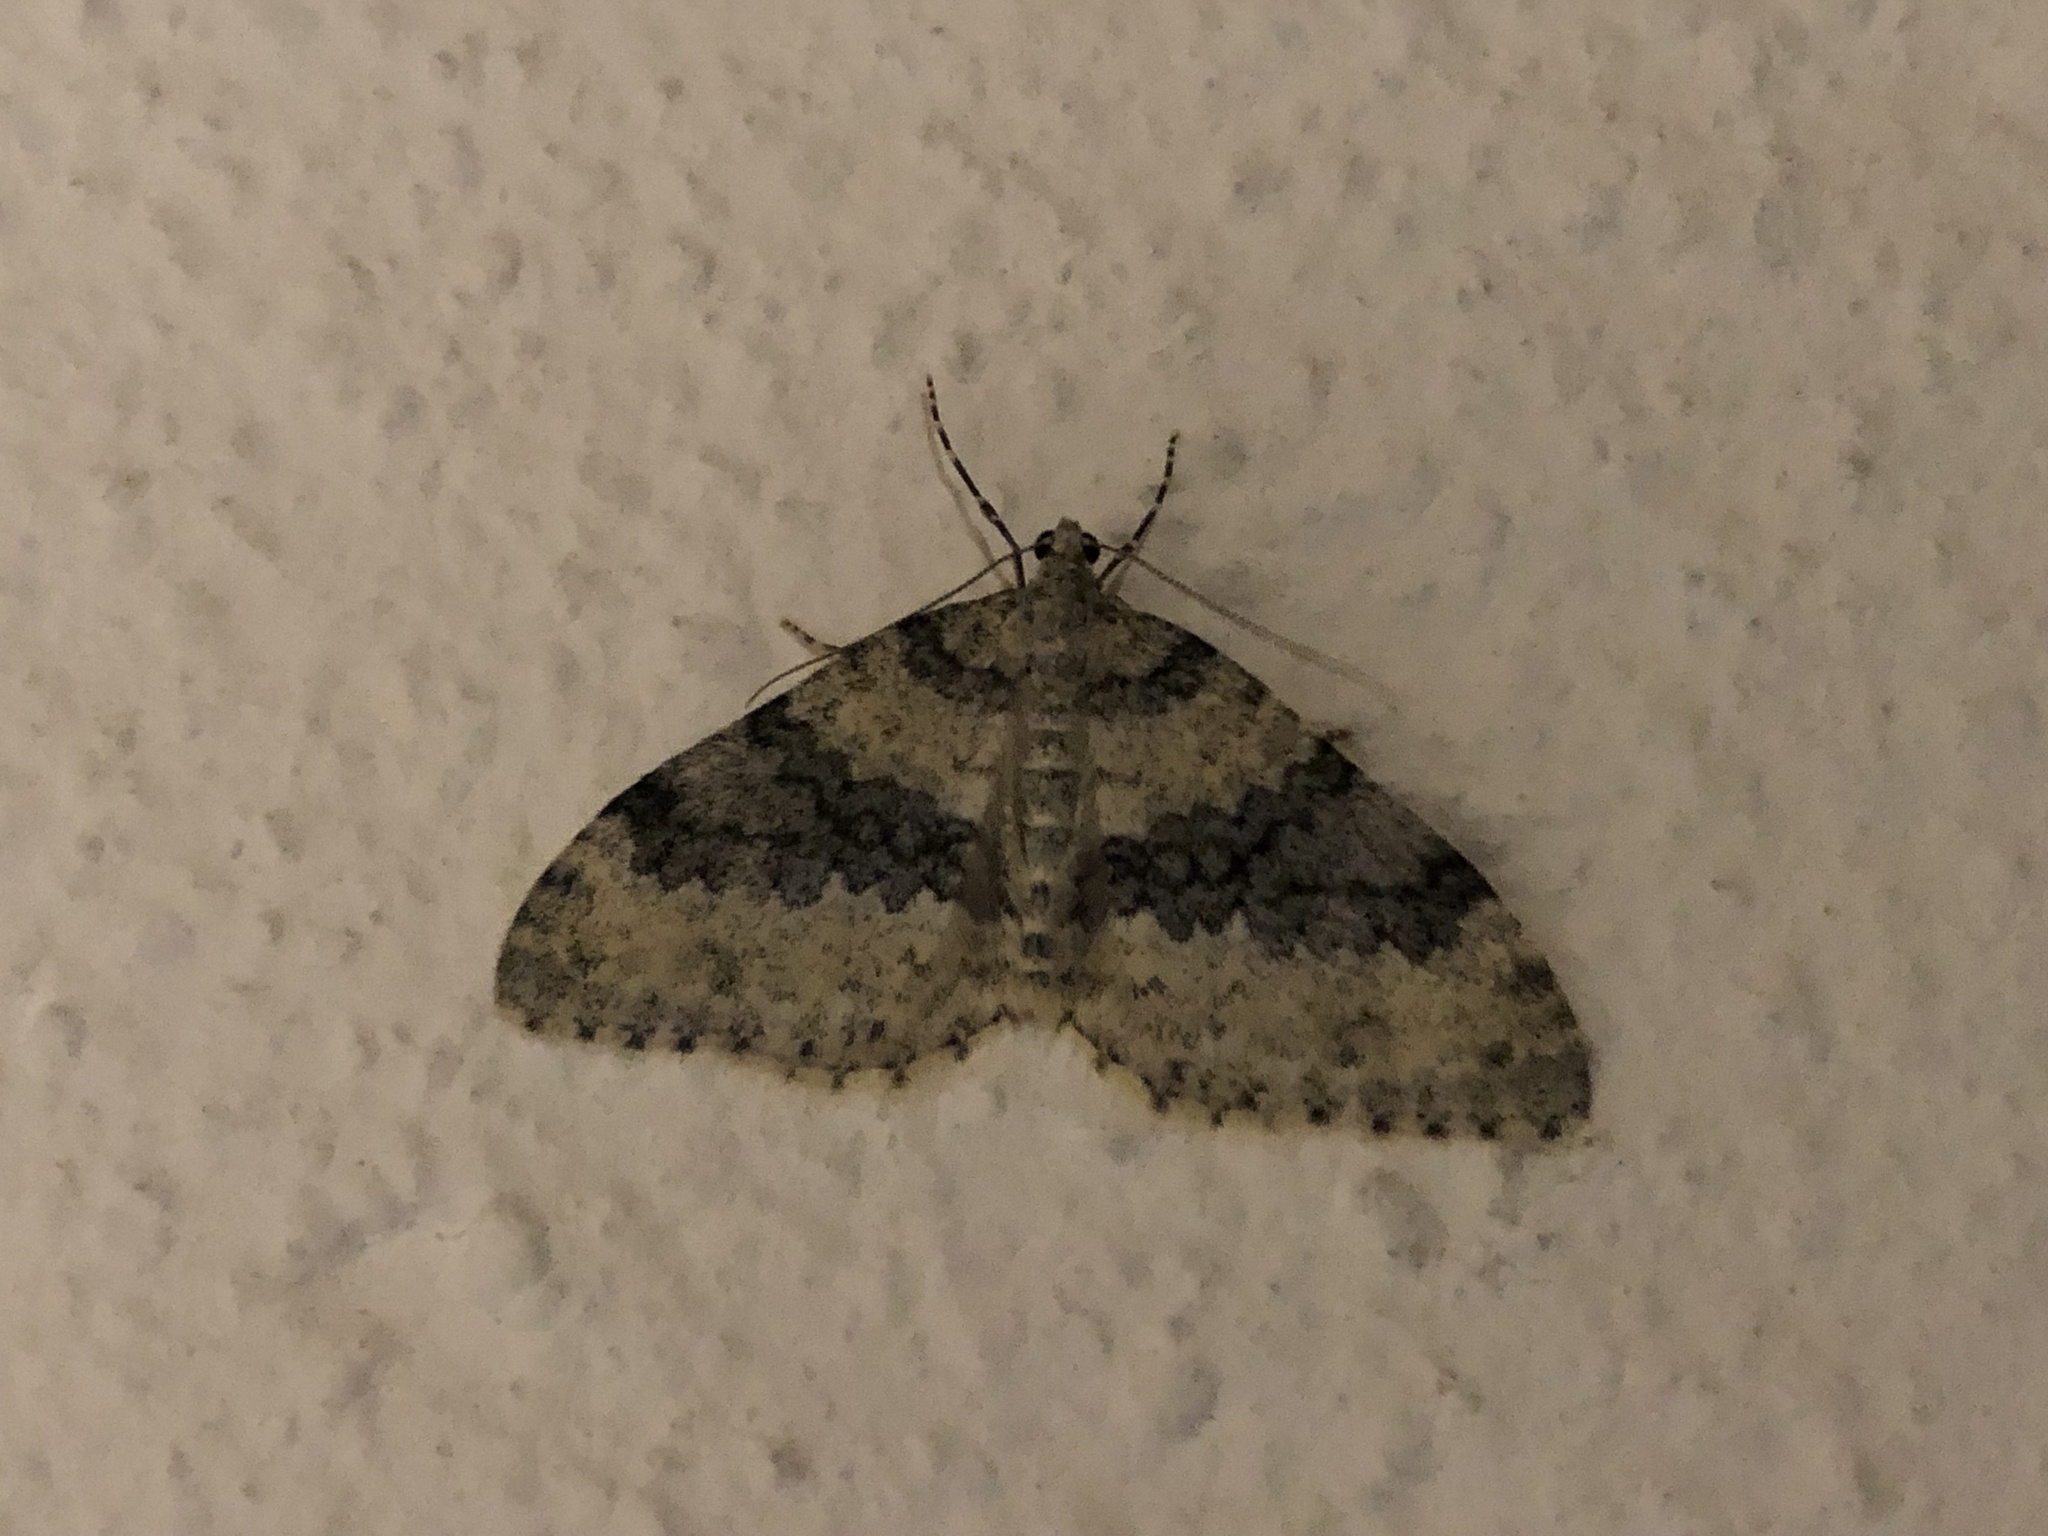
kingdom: Animalia
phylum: Arthropoda
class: Insecta
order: Lepidoptera
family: Geometridae
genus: Entephria
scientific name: Entephria cyanata
